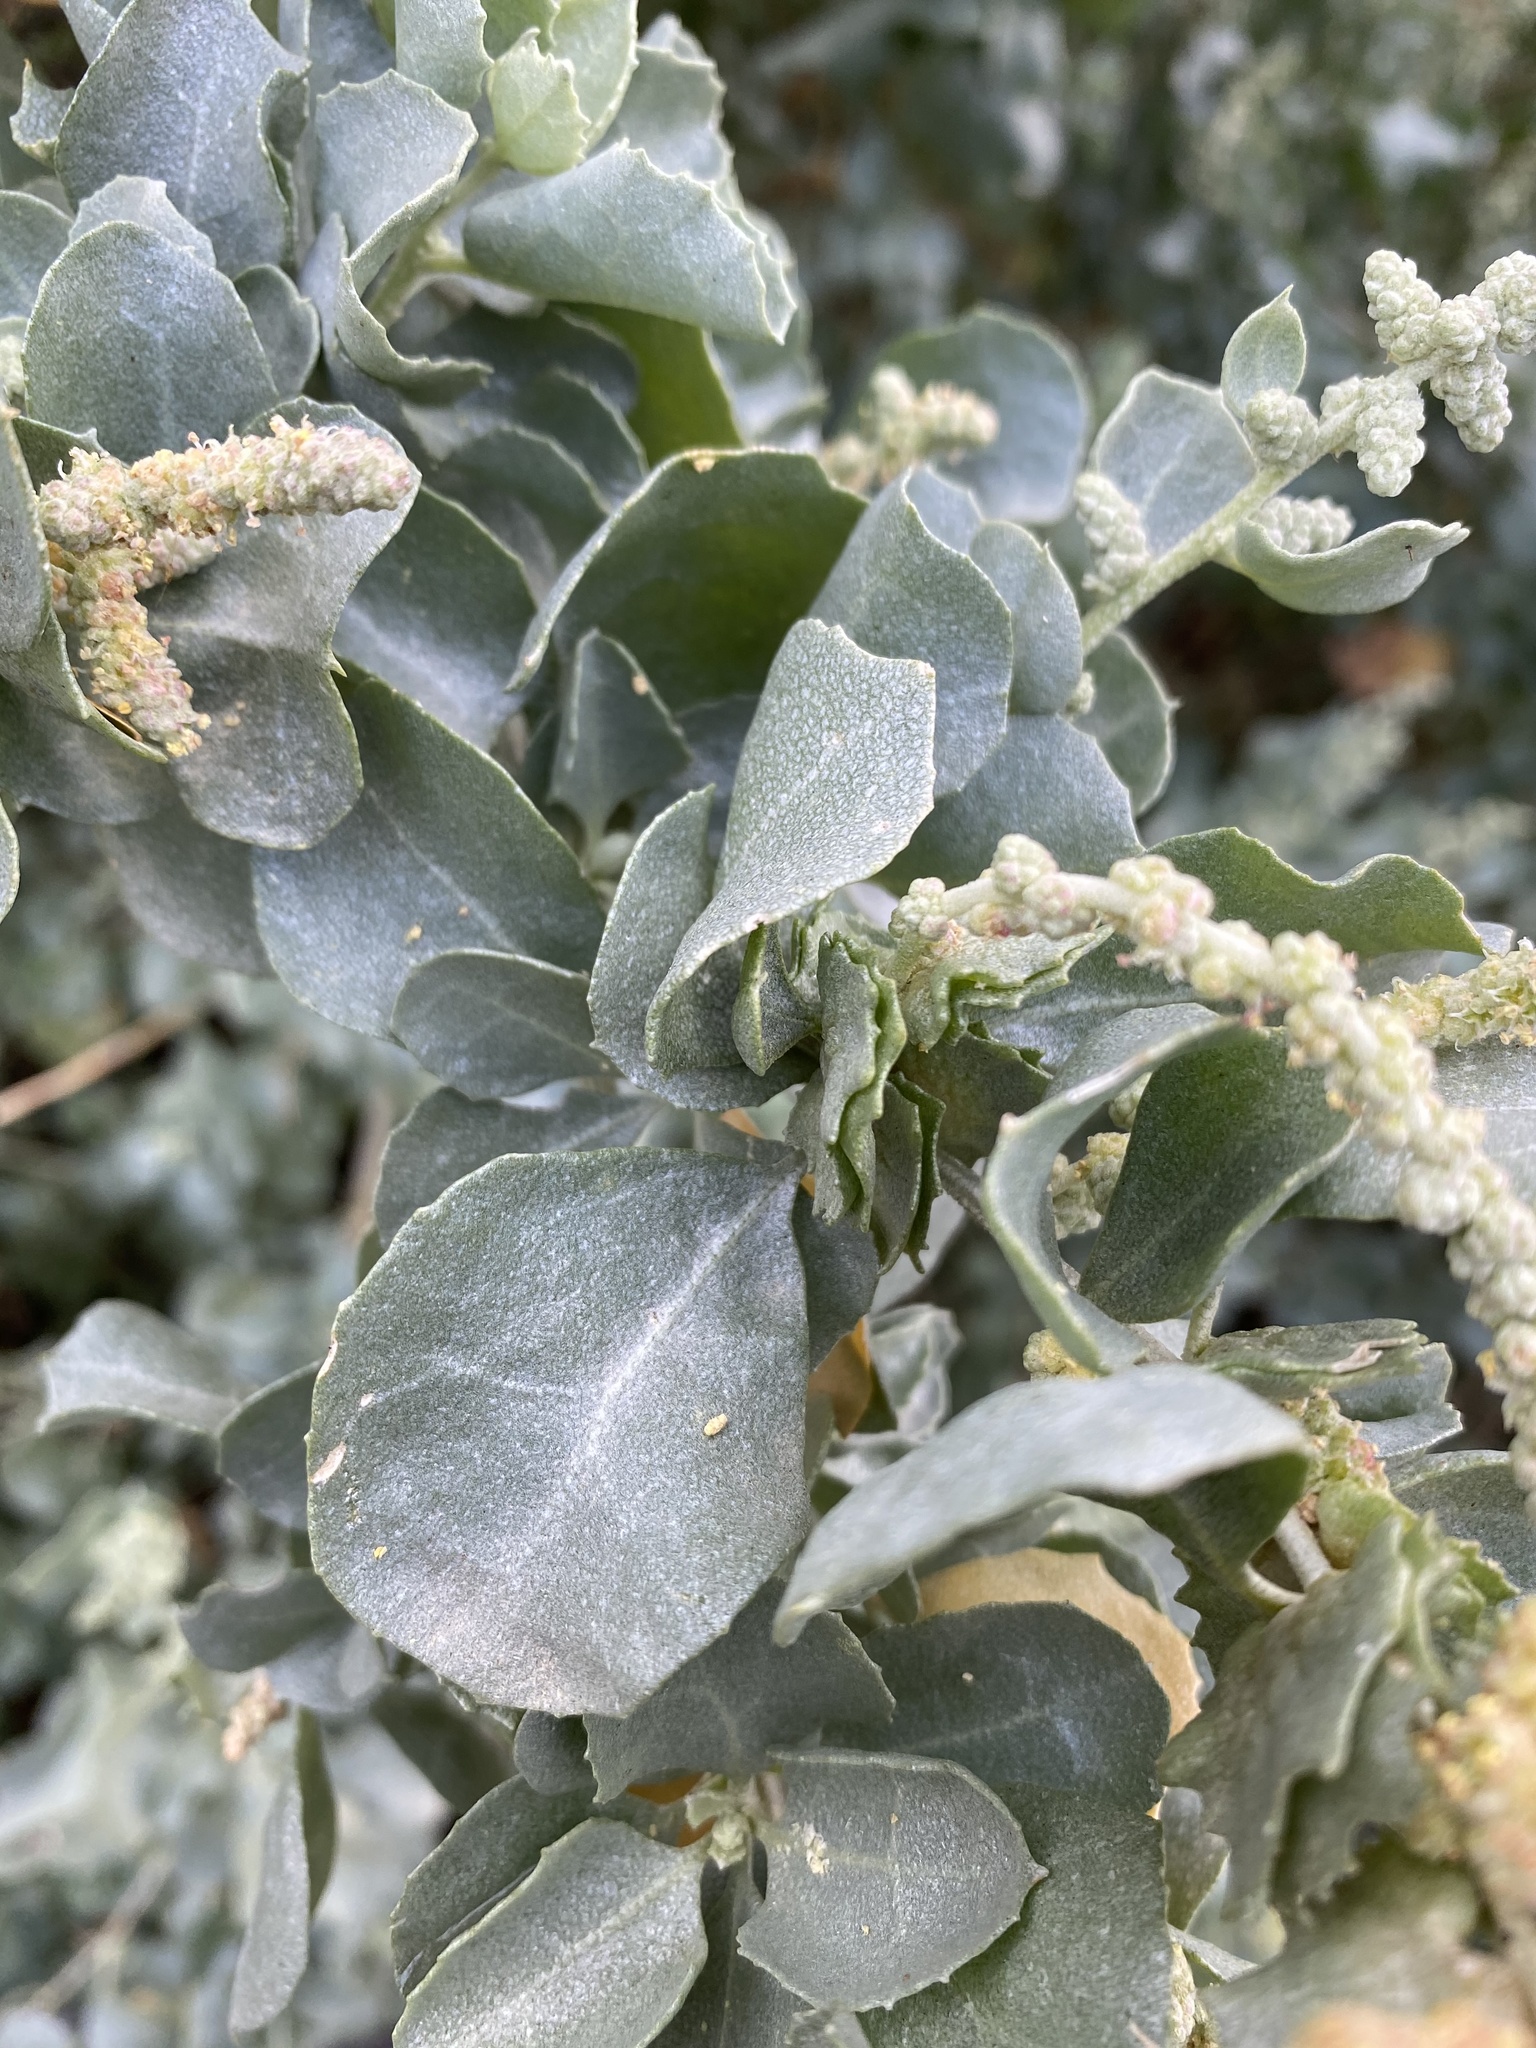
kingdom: Plantae
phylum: Tracheophyta
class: Magnoliopsida
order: Caryophyllales
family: Amaranthaceae
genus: Atriplex
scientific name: Atriplex nummularia
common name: Bluegreen saltbush
